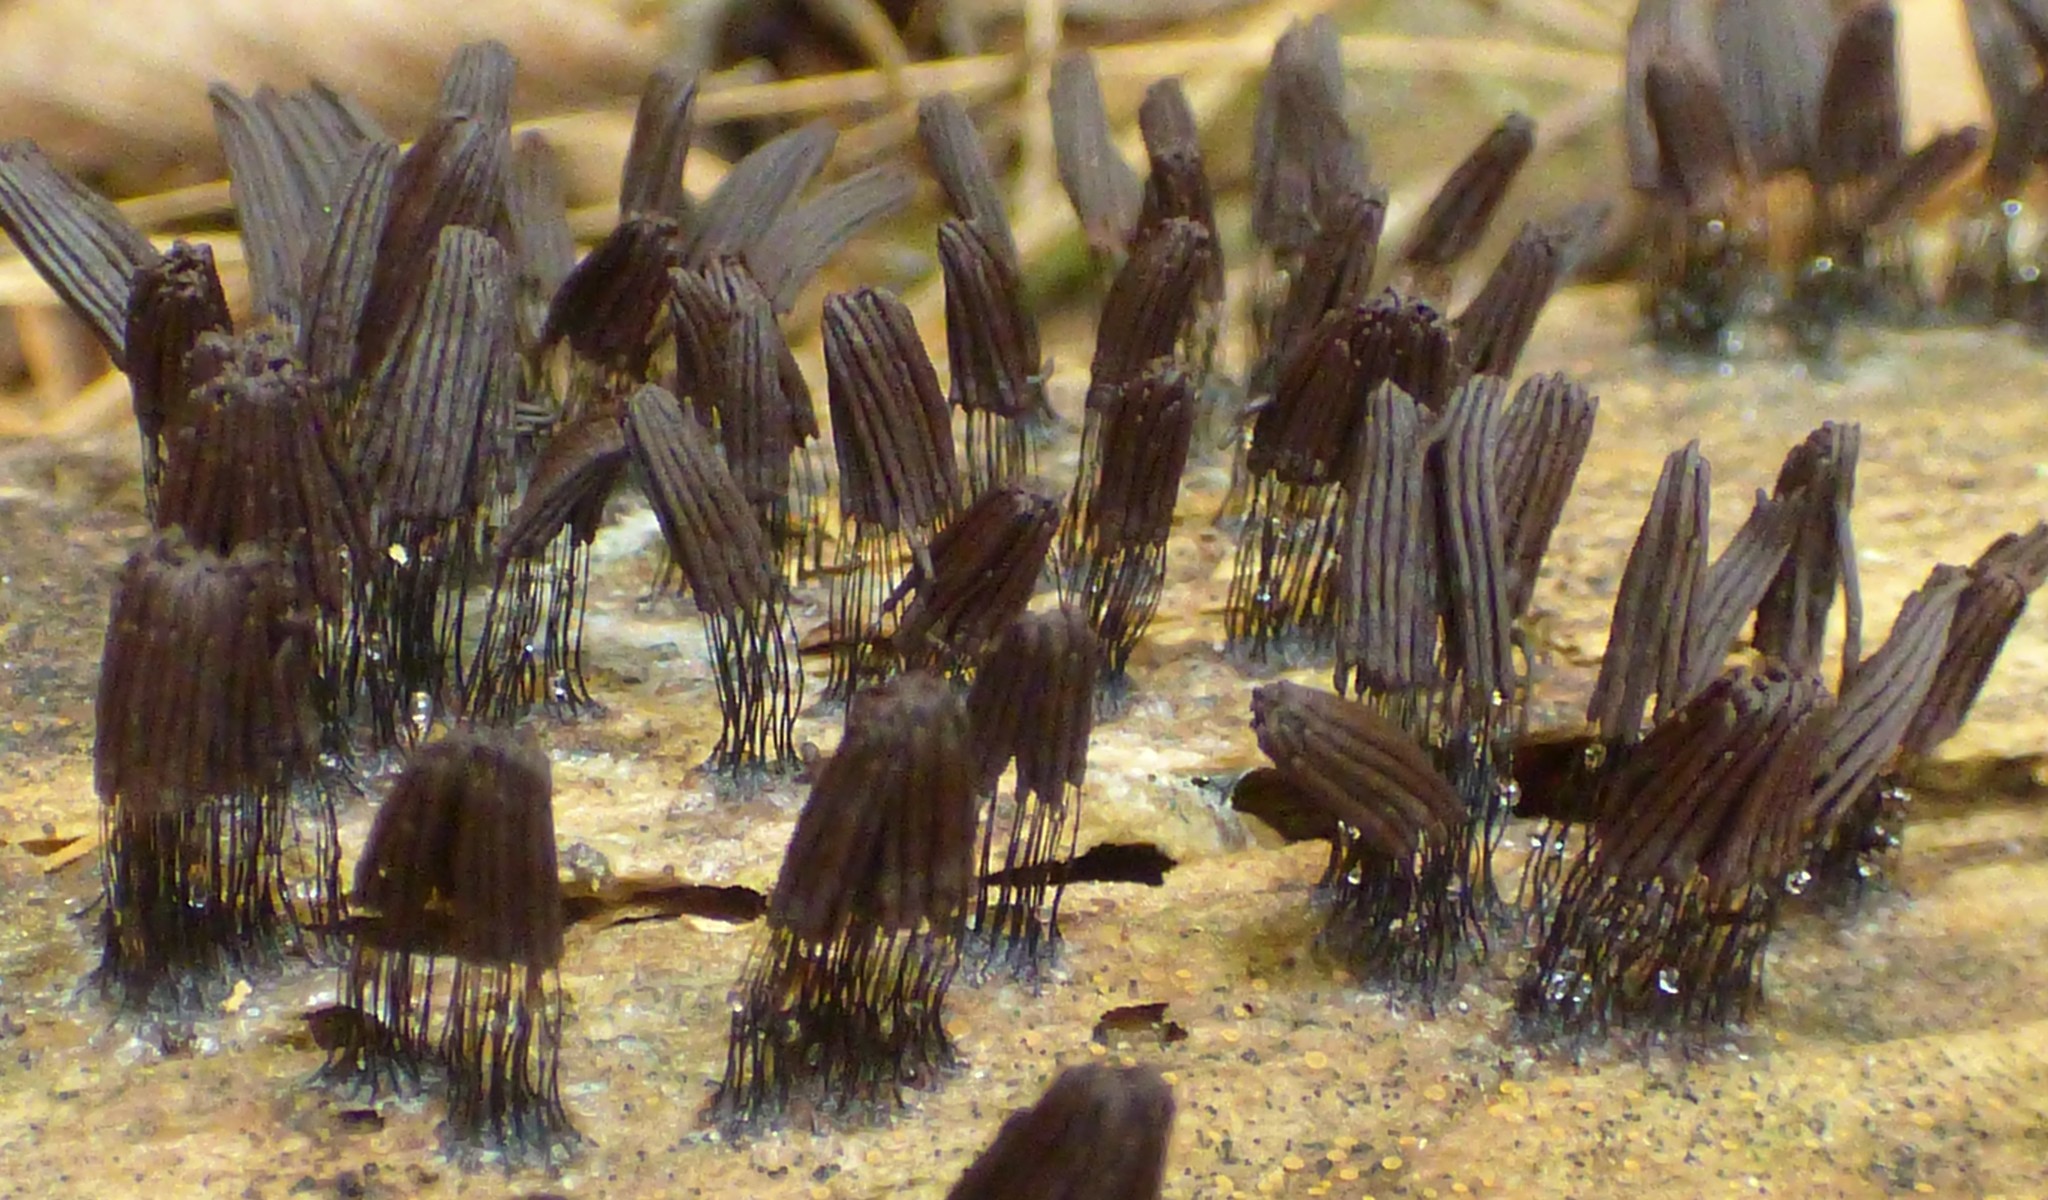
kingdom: Protozoa
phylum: Mycetozoa
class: Myxomycetes
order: Stemonitidales
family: Stemonitidaceae
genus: Stemonitis
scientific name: Stemonitis splendens
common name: Chocolate tube slime
